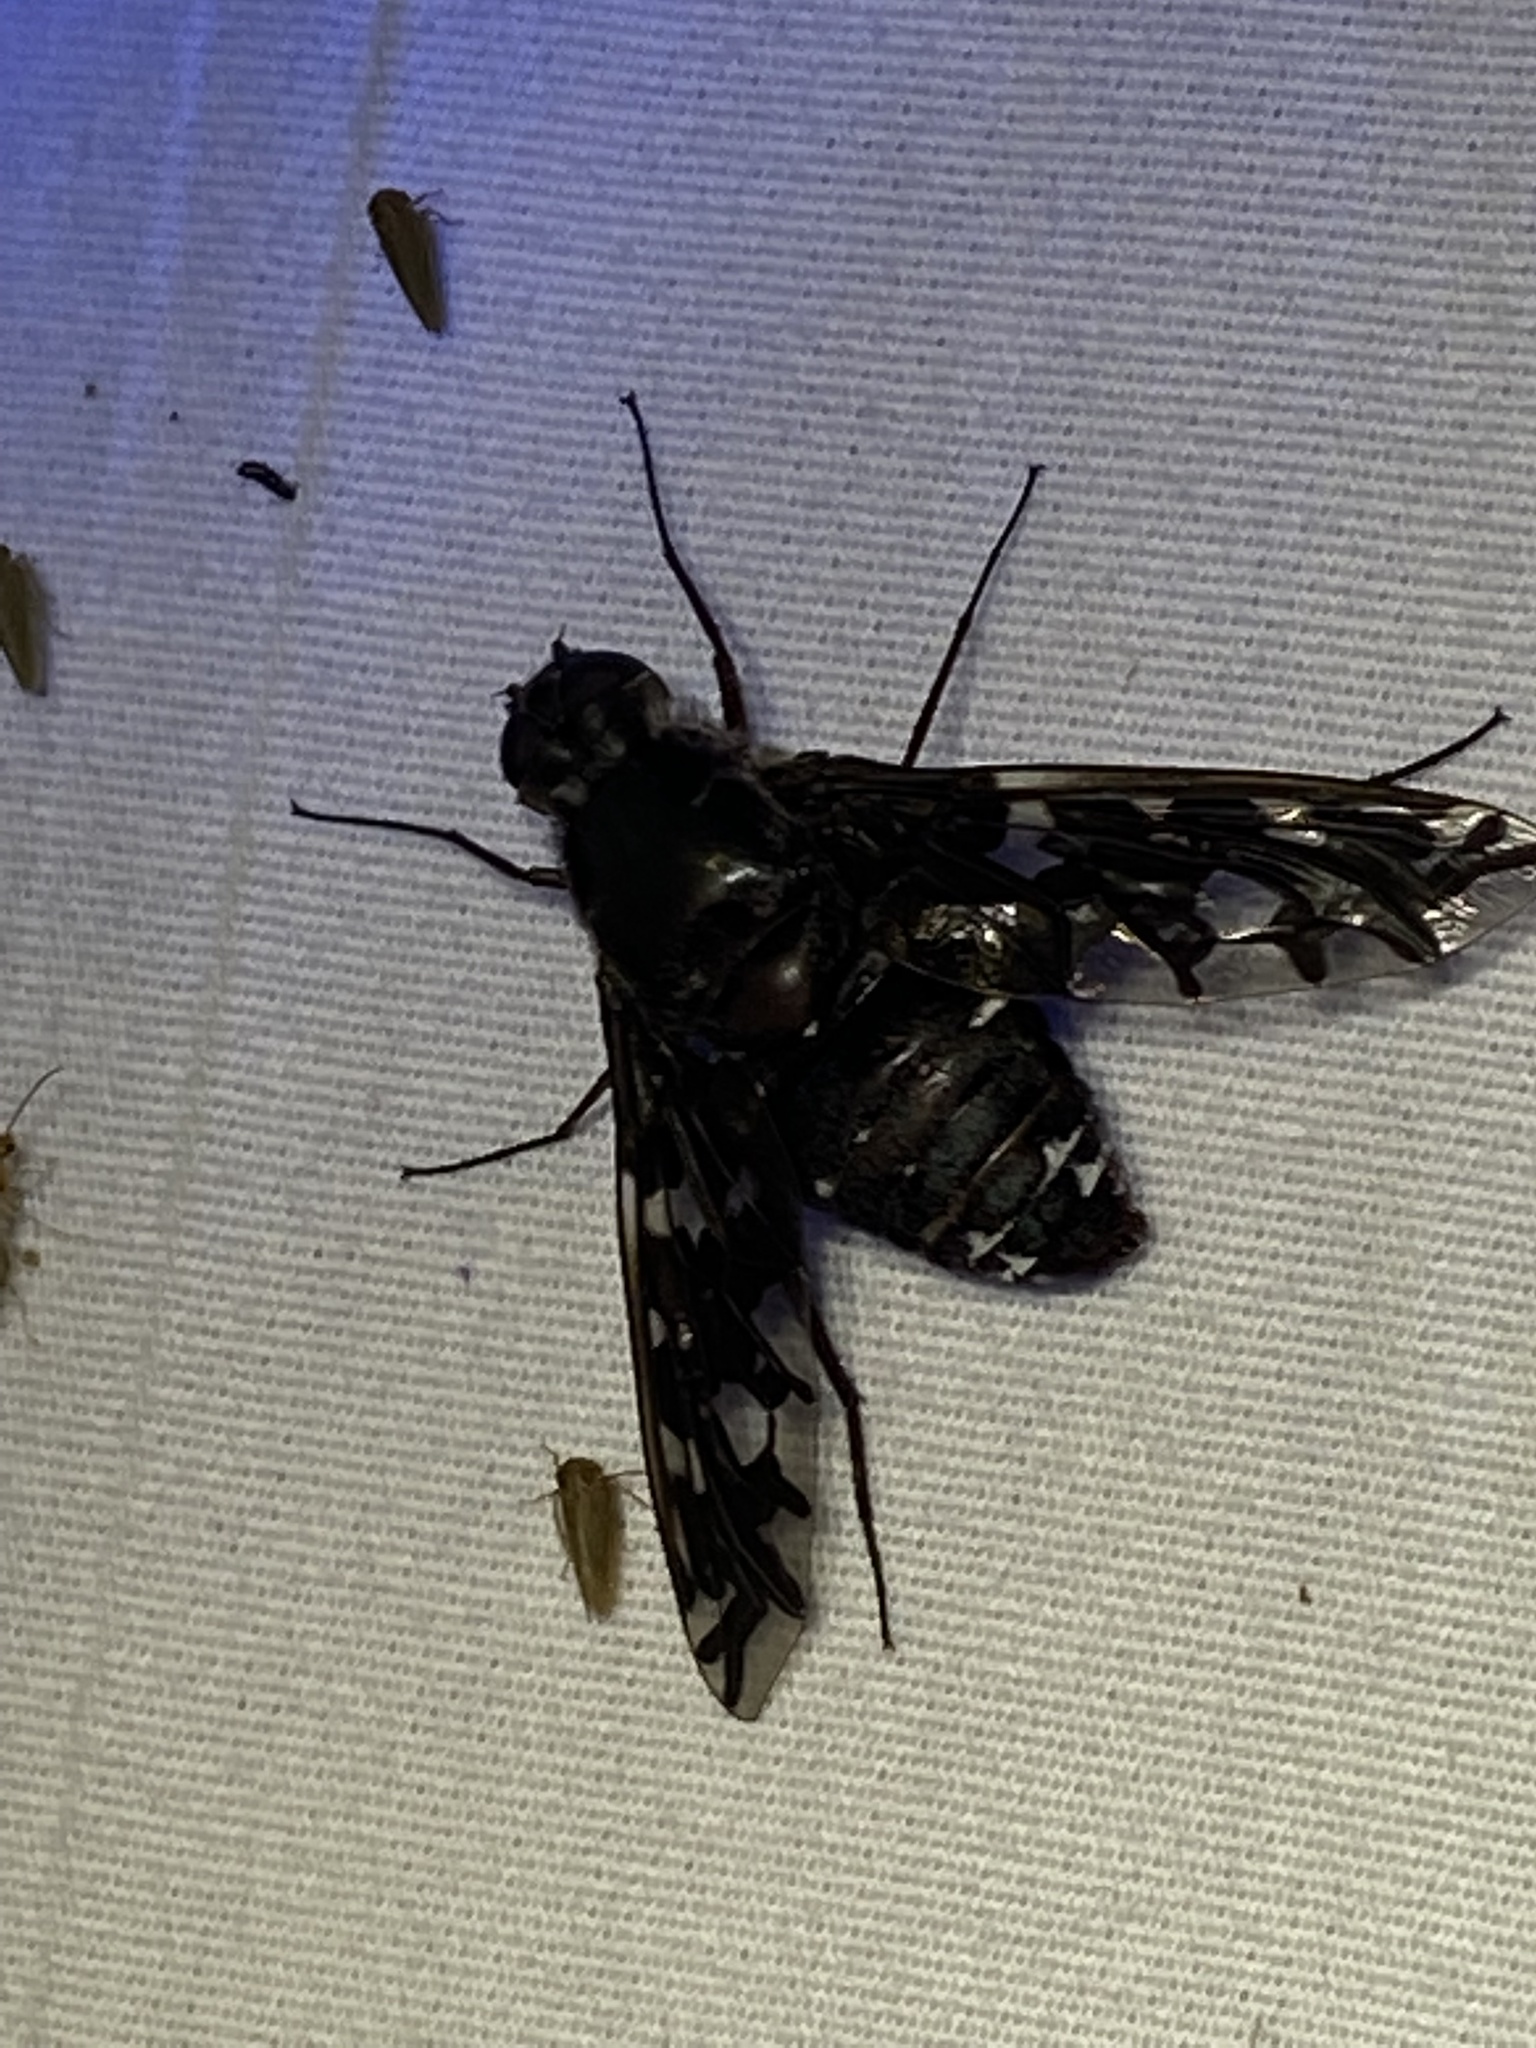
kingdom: Animalia
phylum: Arthropoda
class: Insecta
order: Diptera
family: Bombyliidae
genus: Xenox
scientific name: Xenox tigrinus
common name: Tiger bee fly
